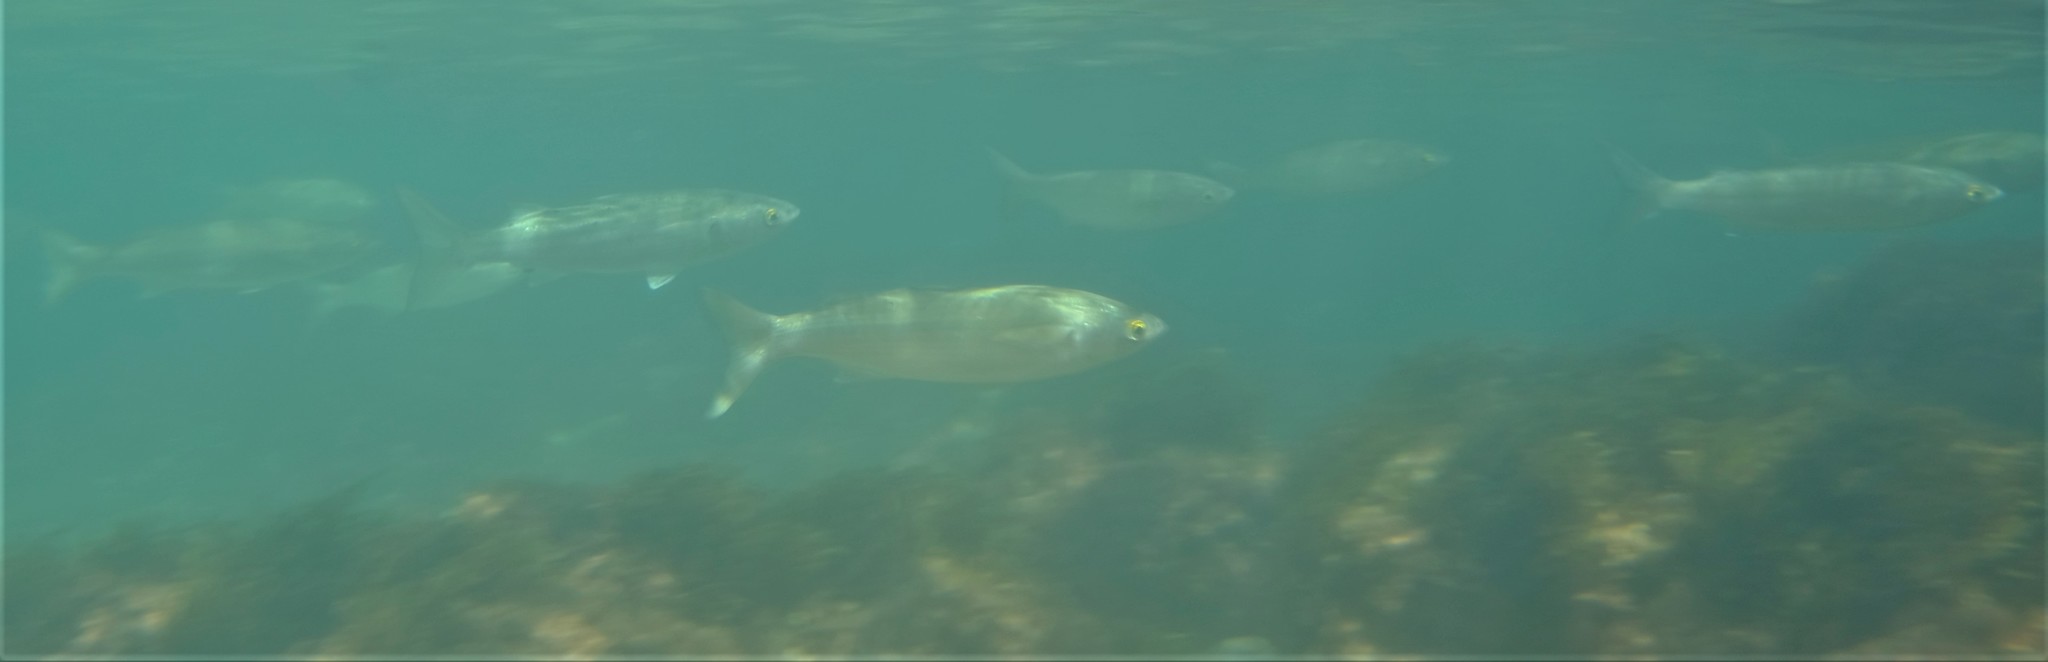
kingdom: Animalia
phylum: Chordata
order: Mugiliformes
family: Mugilidae
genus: Aldrichetta
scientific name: Aldrichetta forsteri
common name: Yellow-eye mullet
